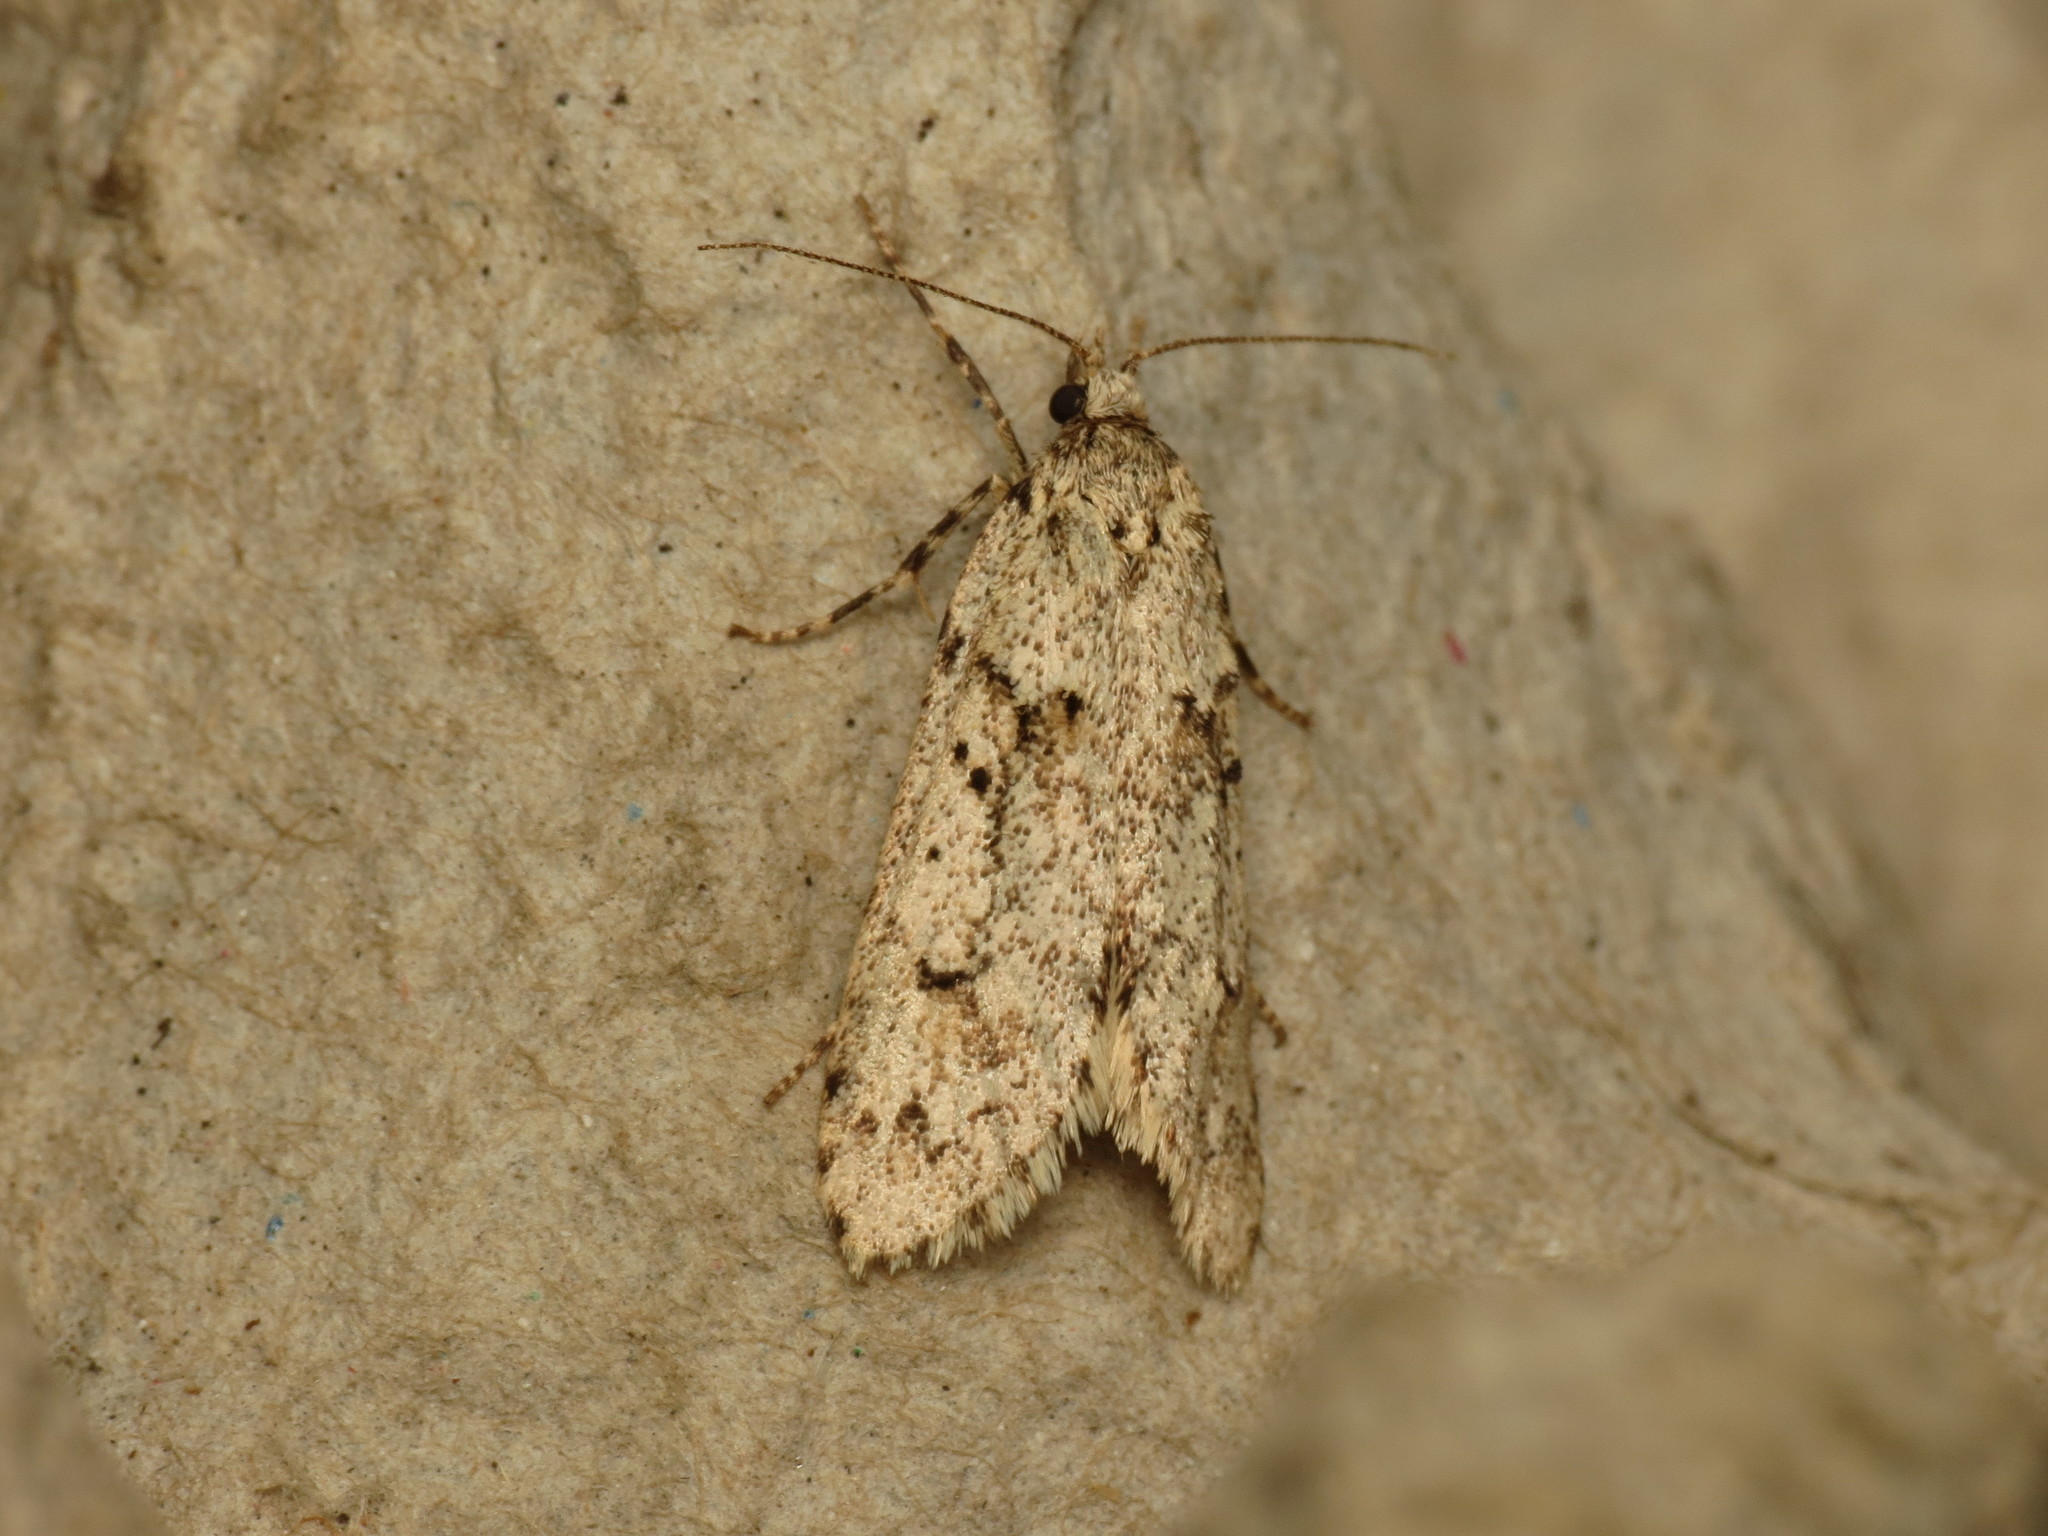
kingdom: Animalia
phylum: Arthropoda
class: Insecta
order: Lepidoptera
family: Lypusidae
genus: Diurnea
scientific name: Diurnea fagella
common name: March tubic
